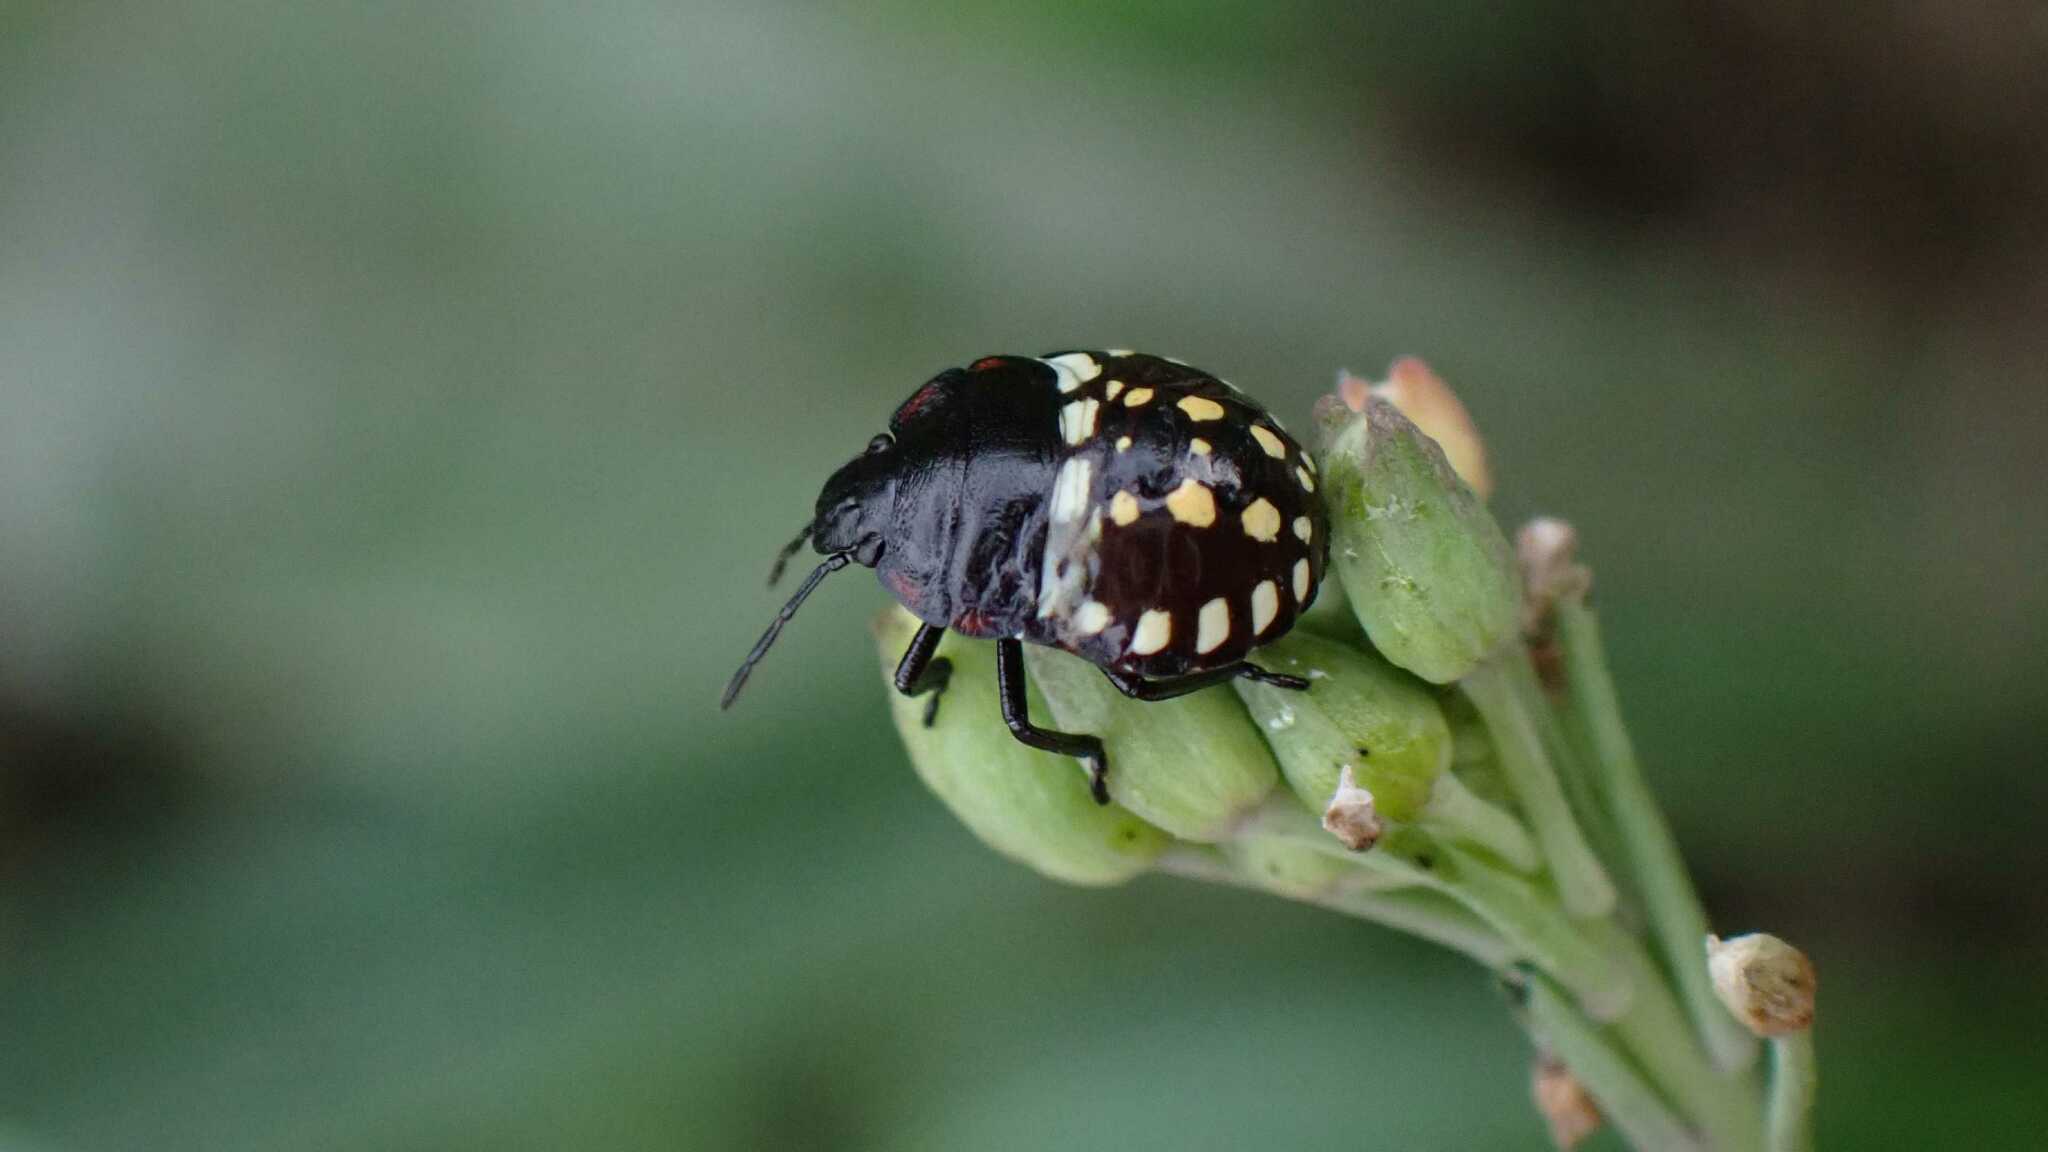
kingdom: Animalia
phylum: Arthropoda
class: Insecta
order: Hemiptera
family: Pentatomidae
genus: Nezara
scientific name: Nezara viridula
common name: Southern green stink bug
